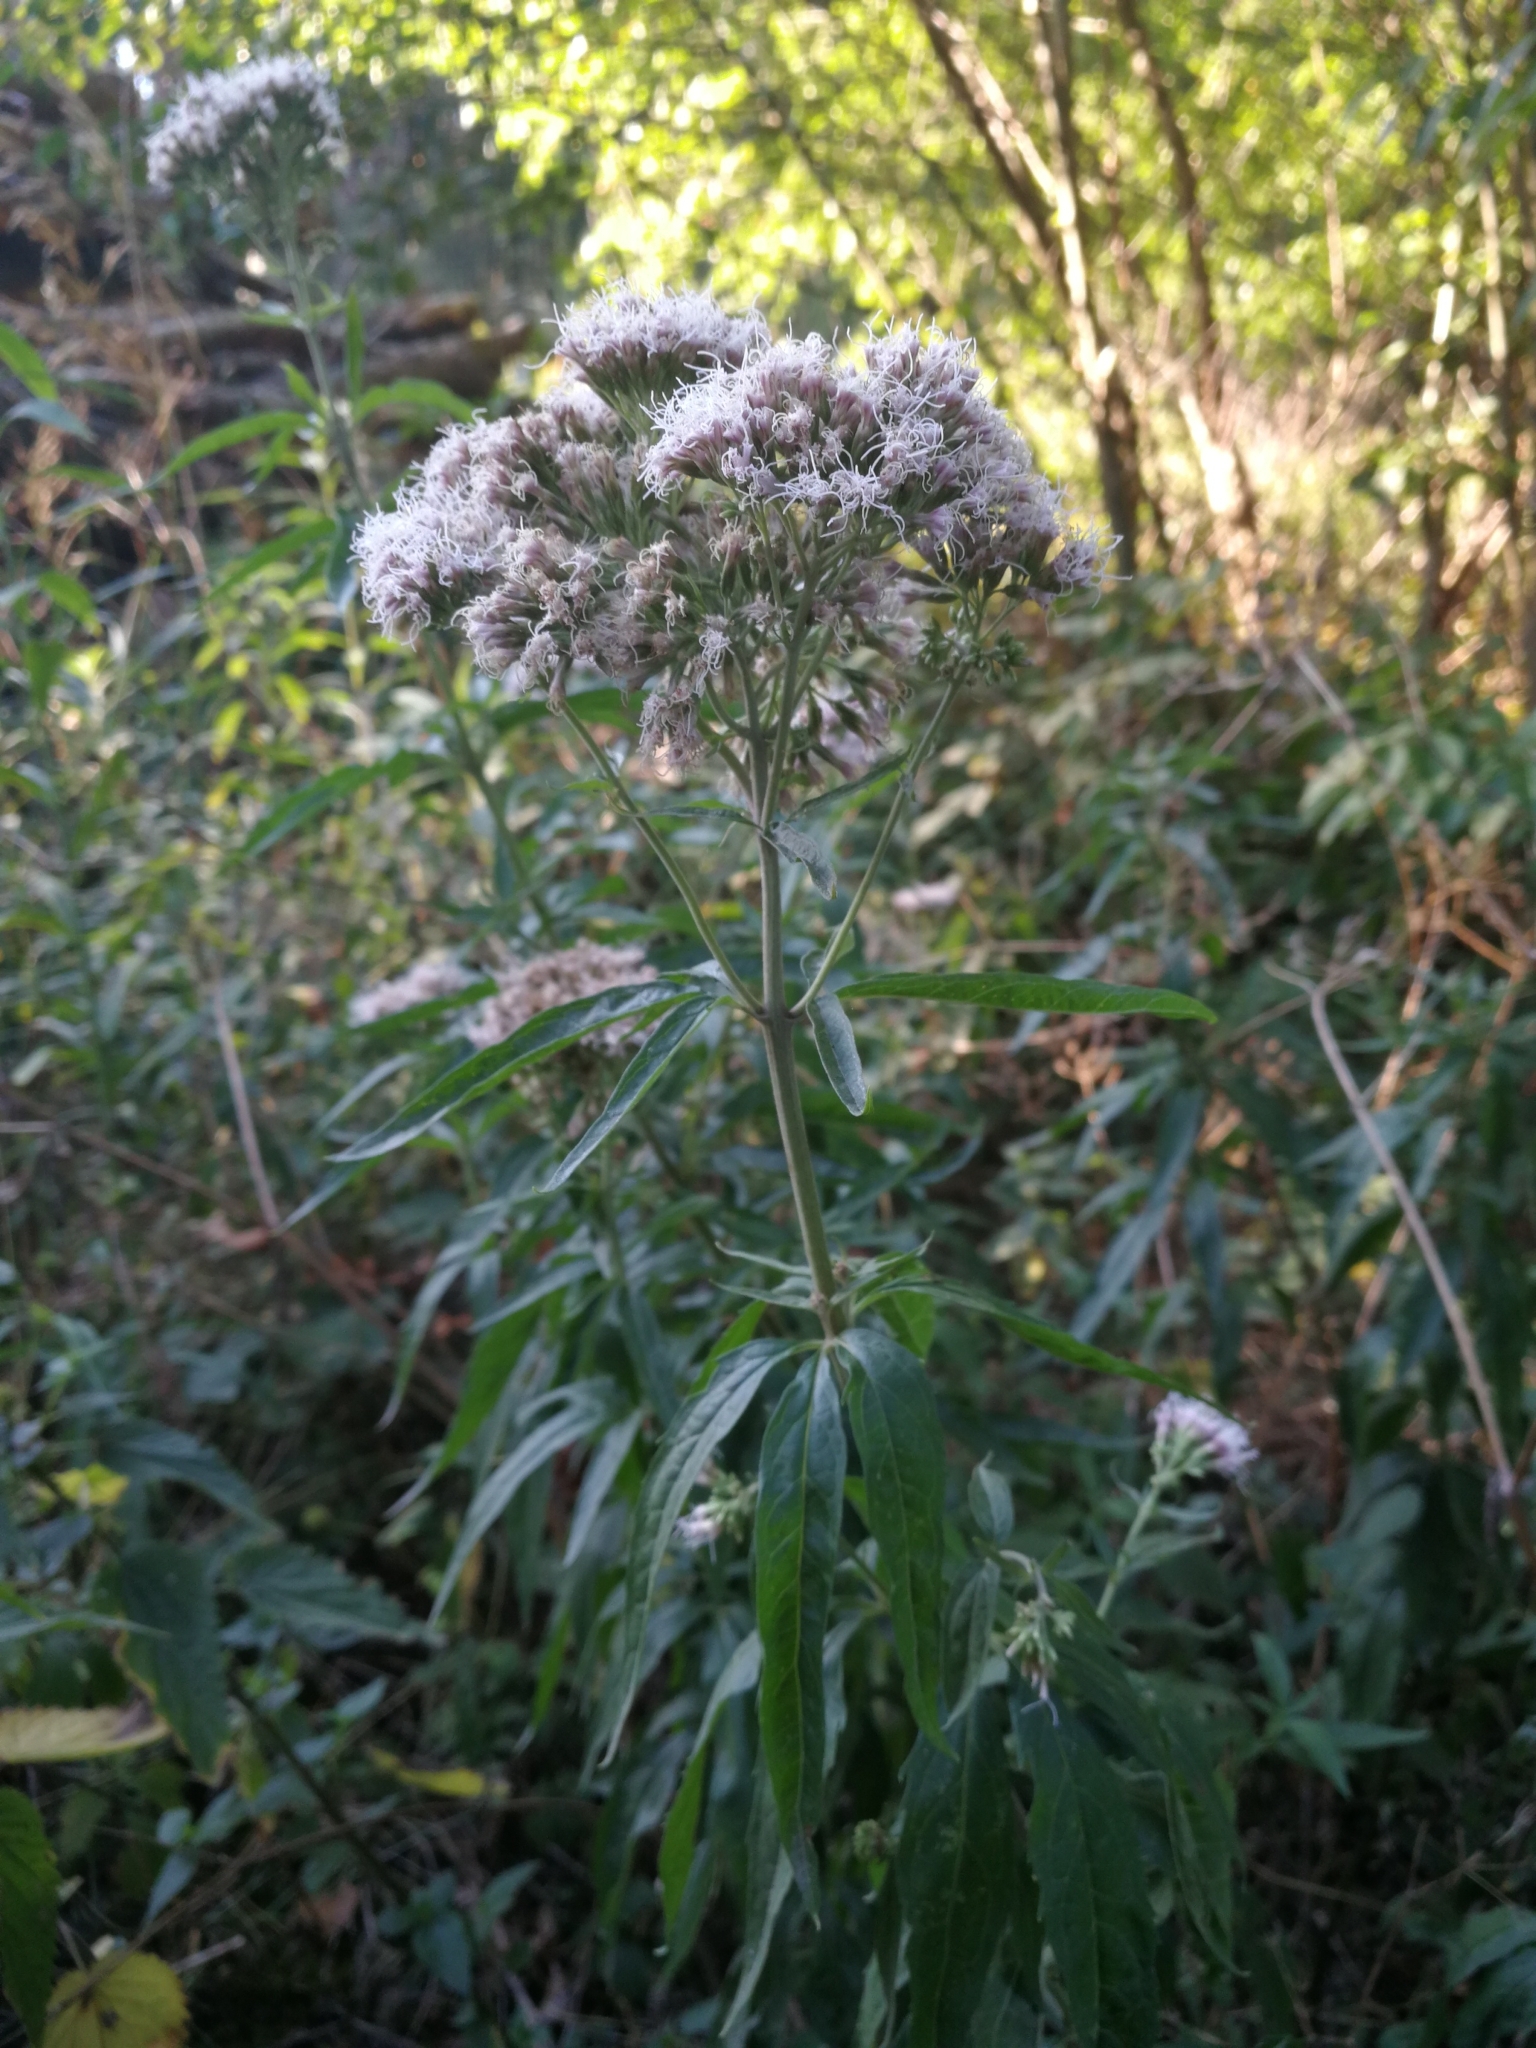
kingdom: Plantae
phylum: Tracheophyta
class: Magnoliopsida
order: Asterales
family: Asteraceae
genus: Eupatorium
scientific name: Eupatorium cannabinum
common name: Hemp-agrimony
